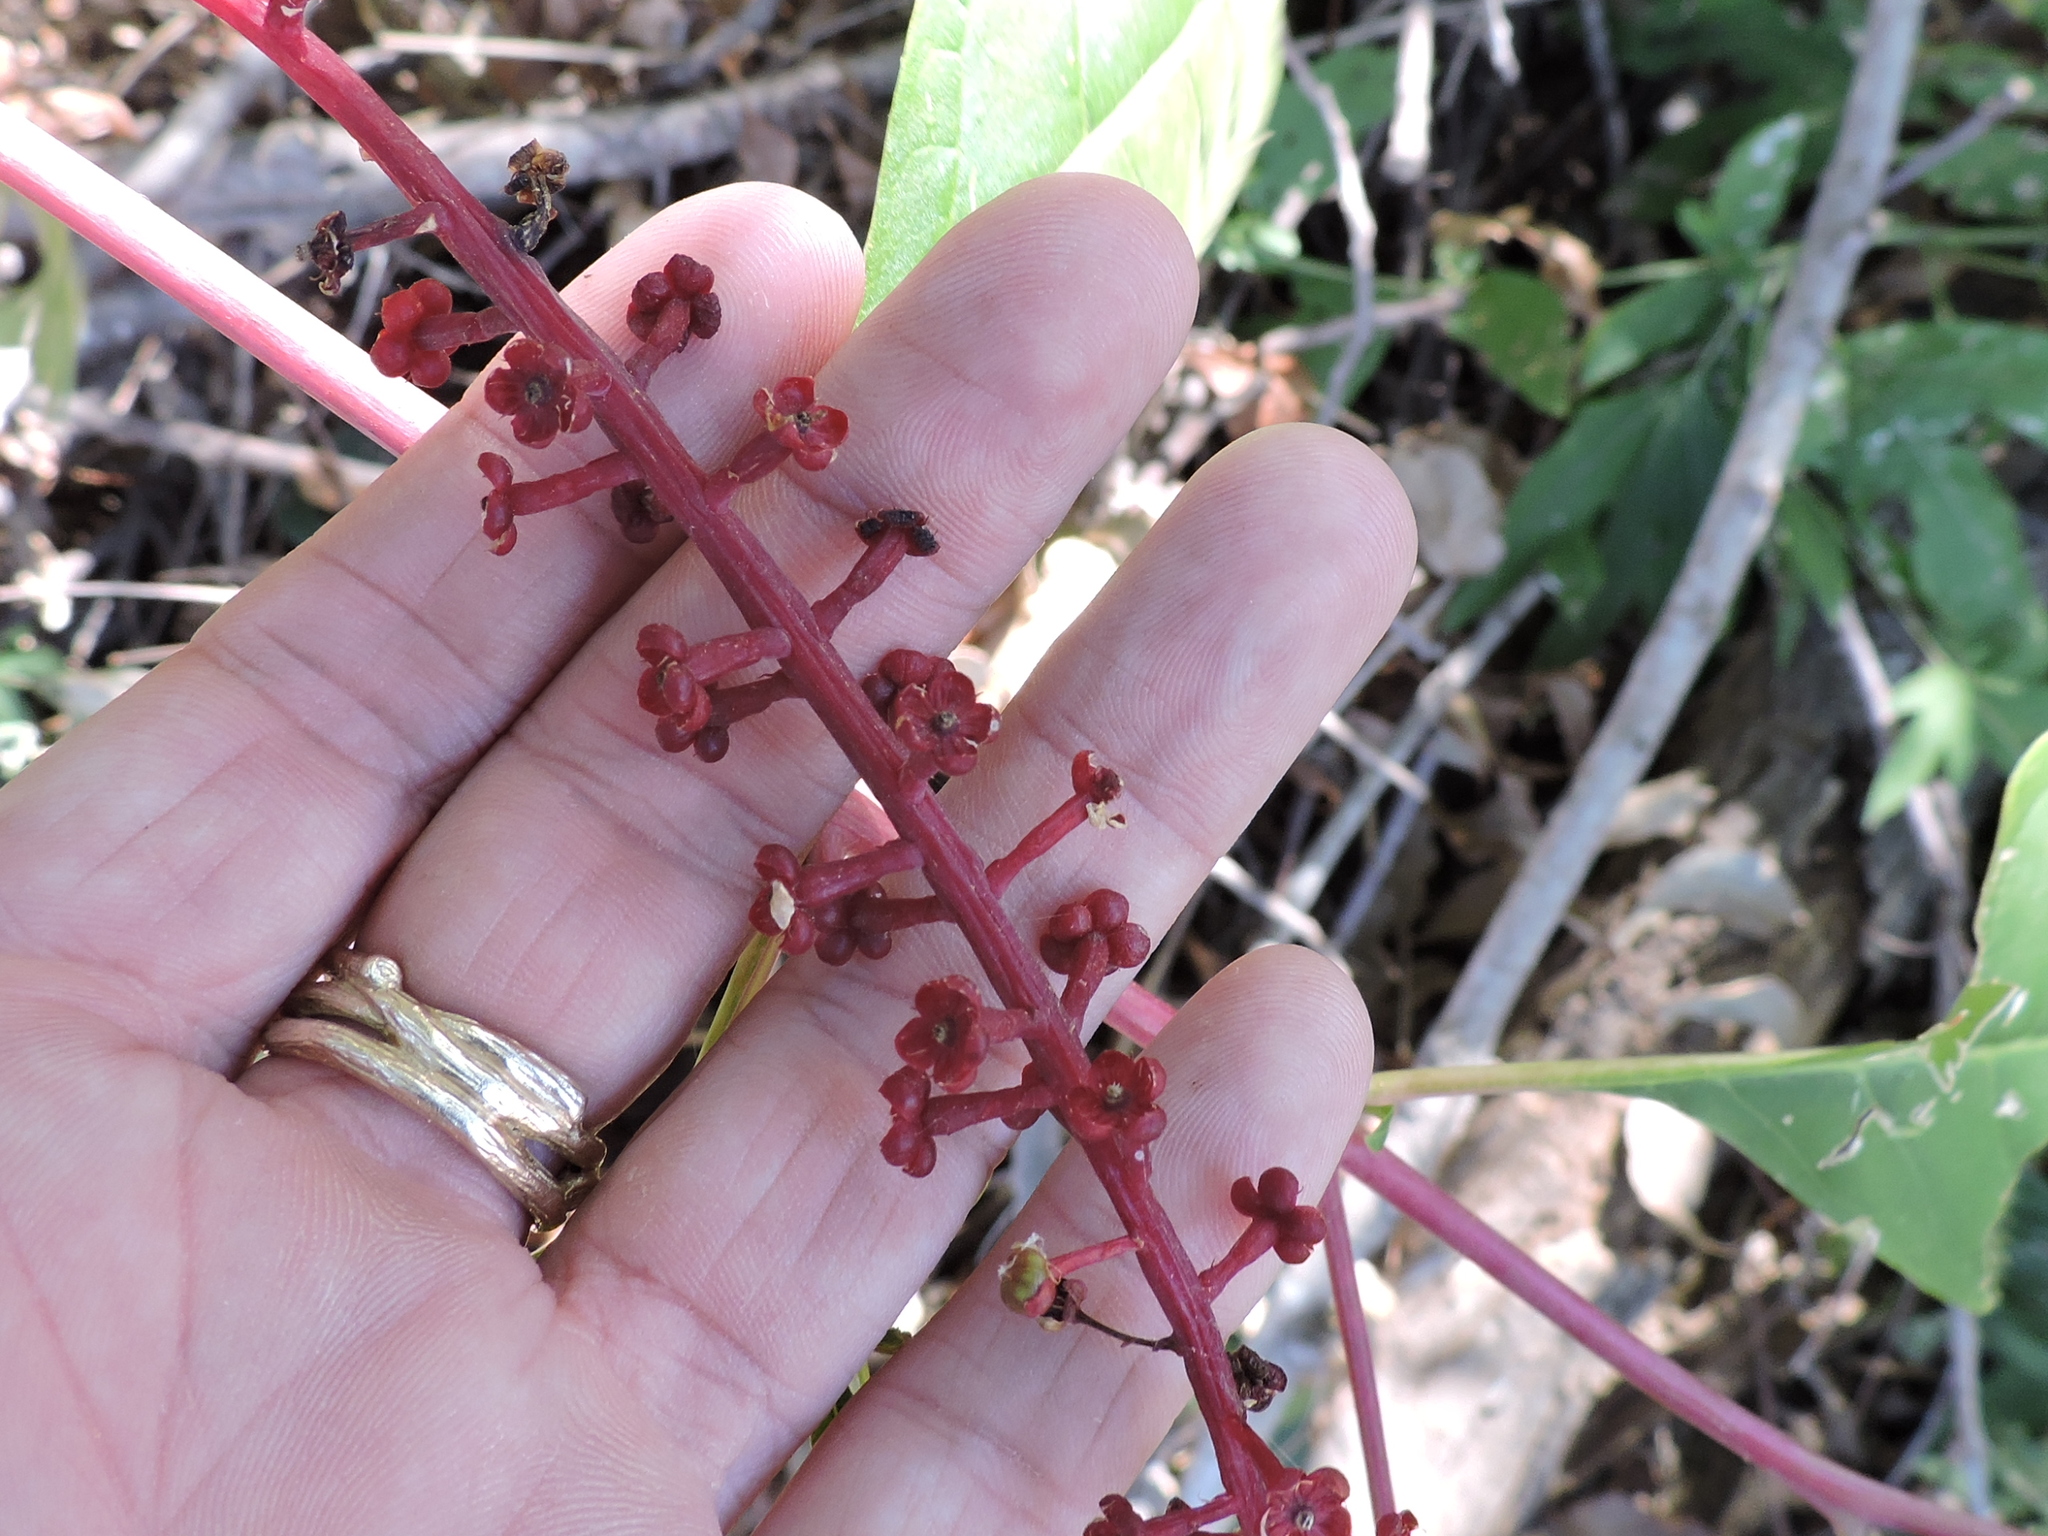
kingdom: Plantae
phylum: Tracheophyta
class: Magnoliopsida
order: Caryophyllales
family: Phytolaccaceae
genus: Phytolacca
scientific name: Phytolacca americana
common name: American pokeweed
